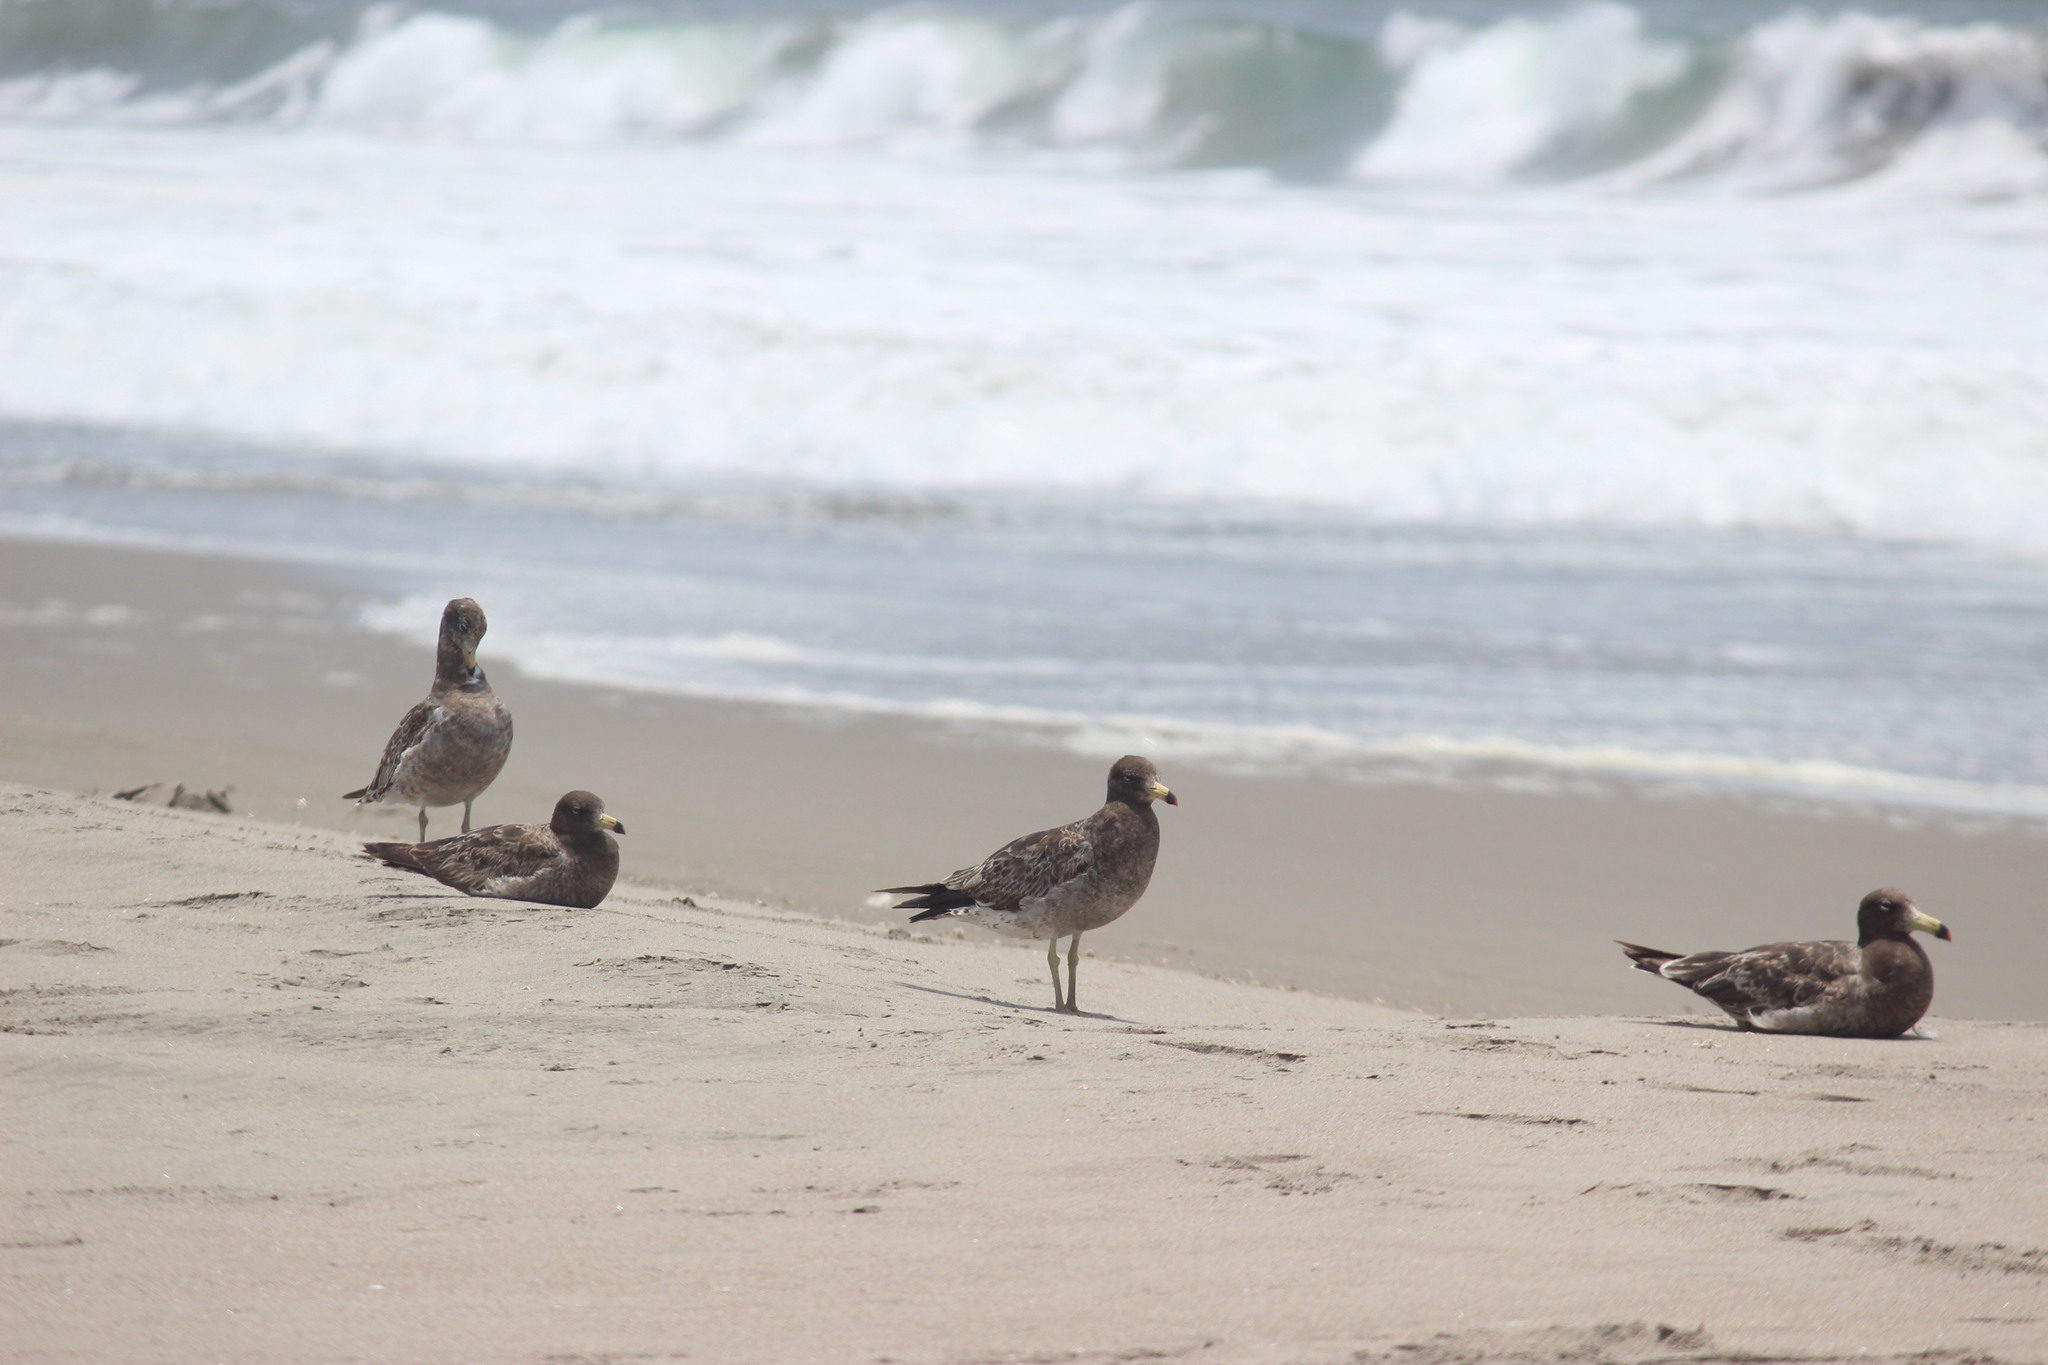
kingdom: Animalia
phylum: Chordata
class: Aves
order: Charadriiformes
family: Laridae
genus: Larus
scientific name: Larus belcheri
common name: Belcher's gull
